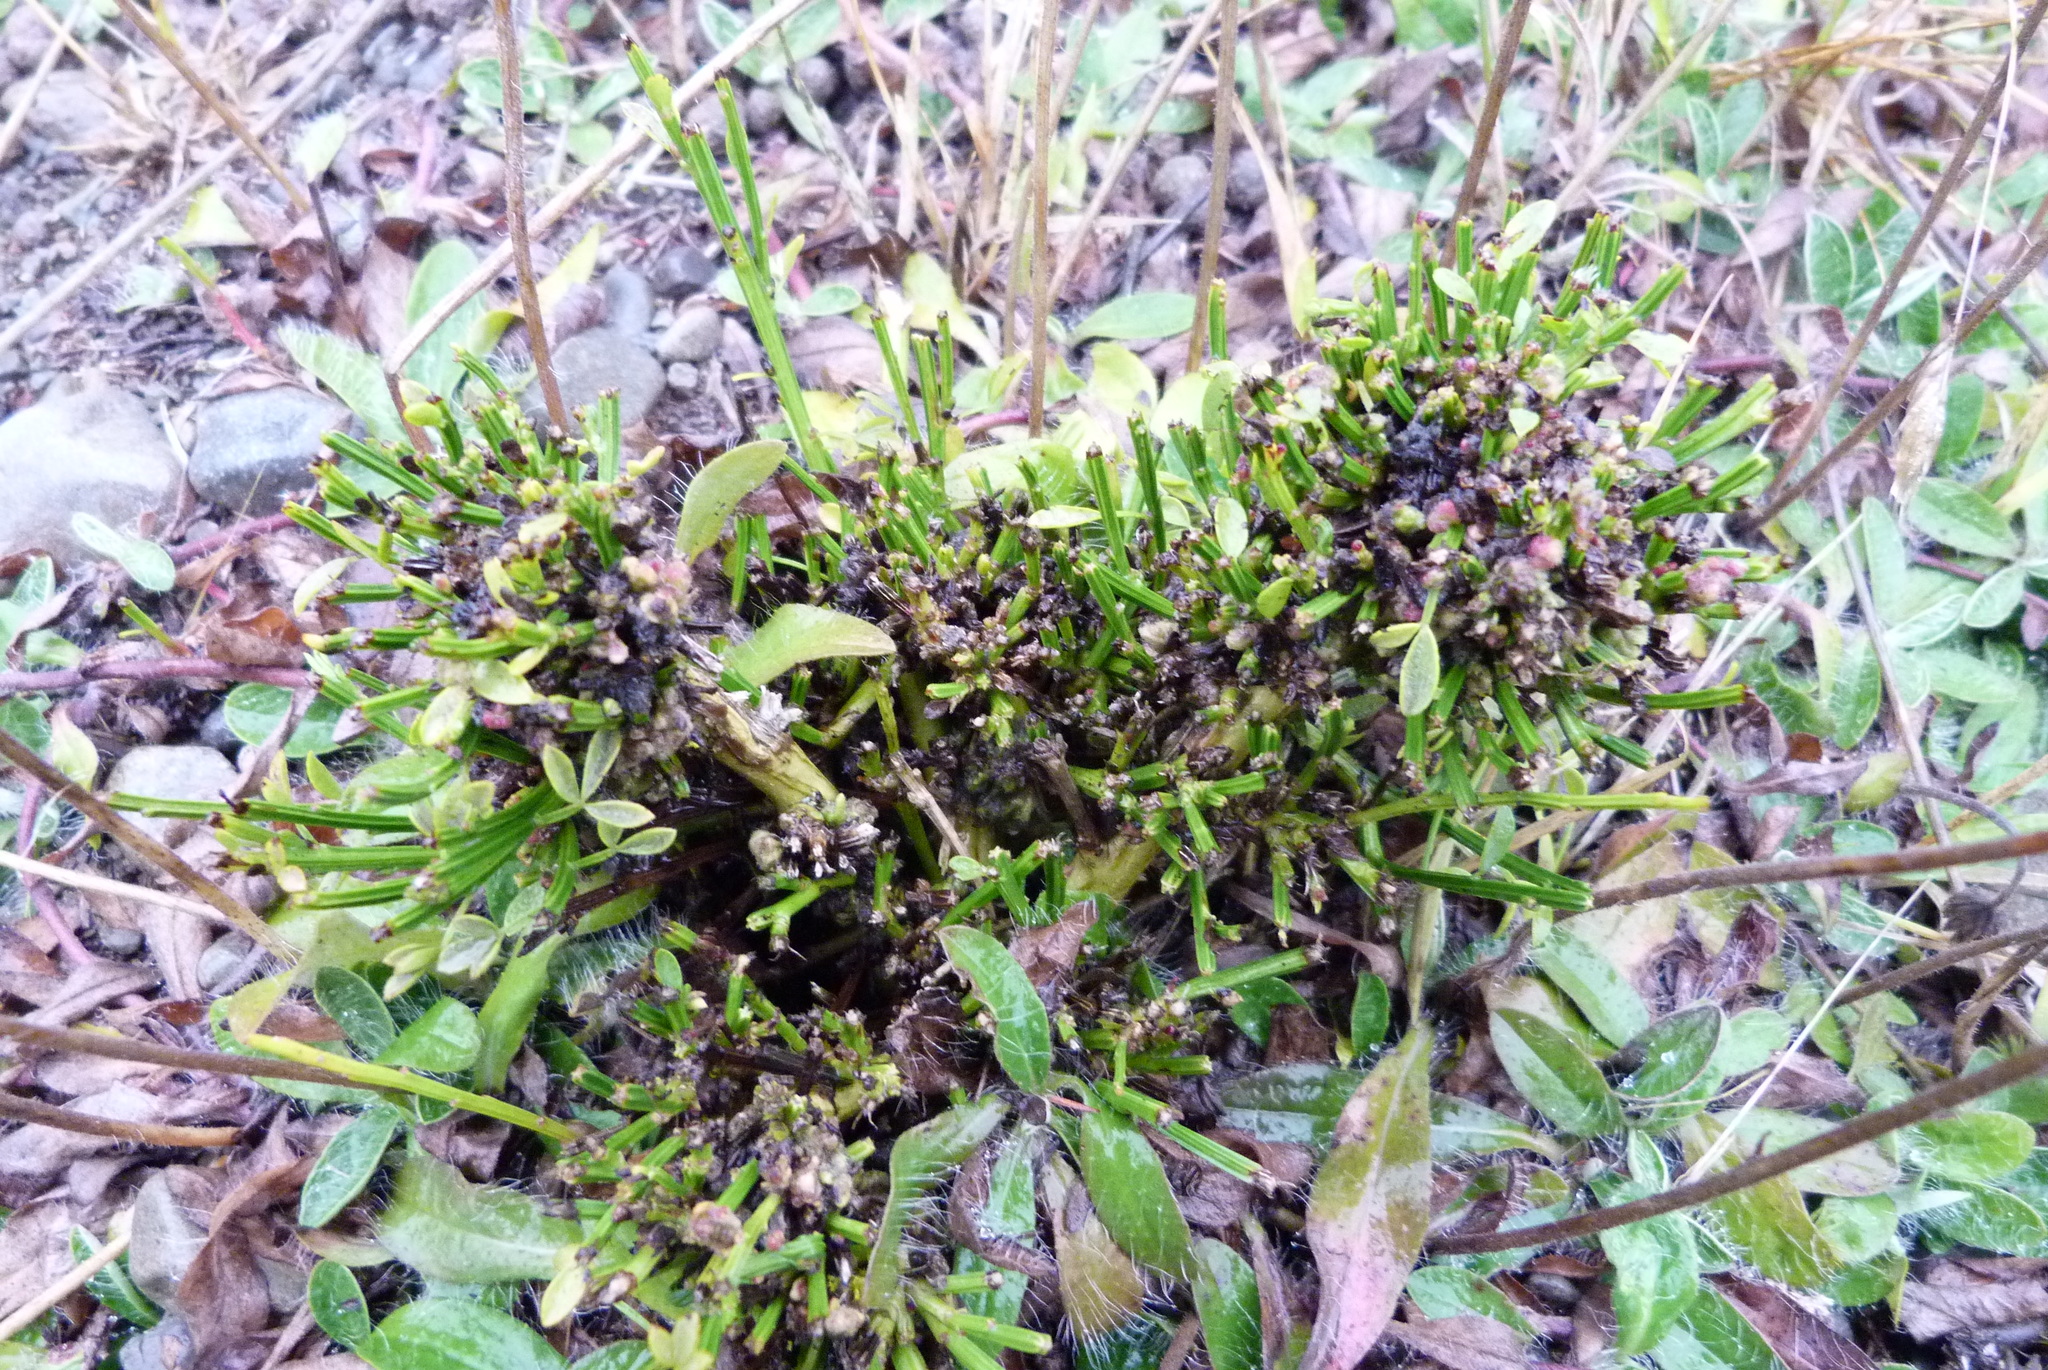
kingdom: Plantae
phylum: Tracheophyta
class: Magnoliopsida
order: Fabales
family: Fabaceae
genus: Cytisus
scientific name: Cytisus scoparius
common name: Scotch broom
